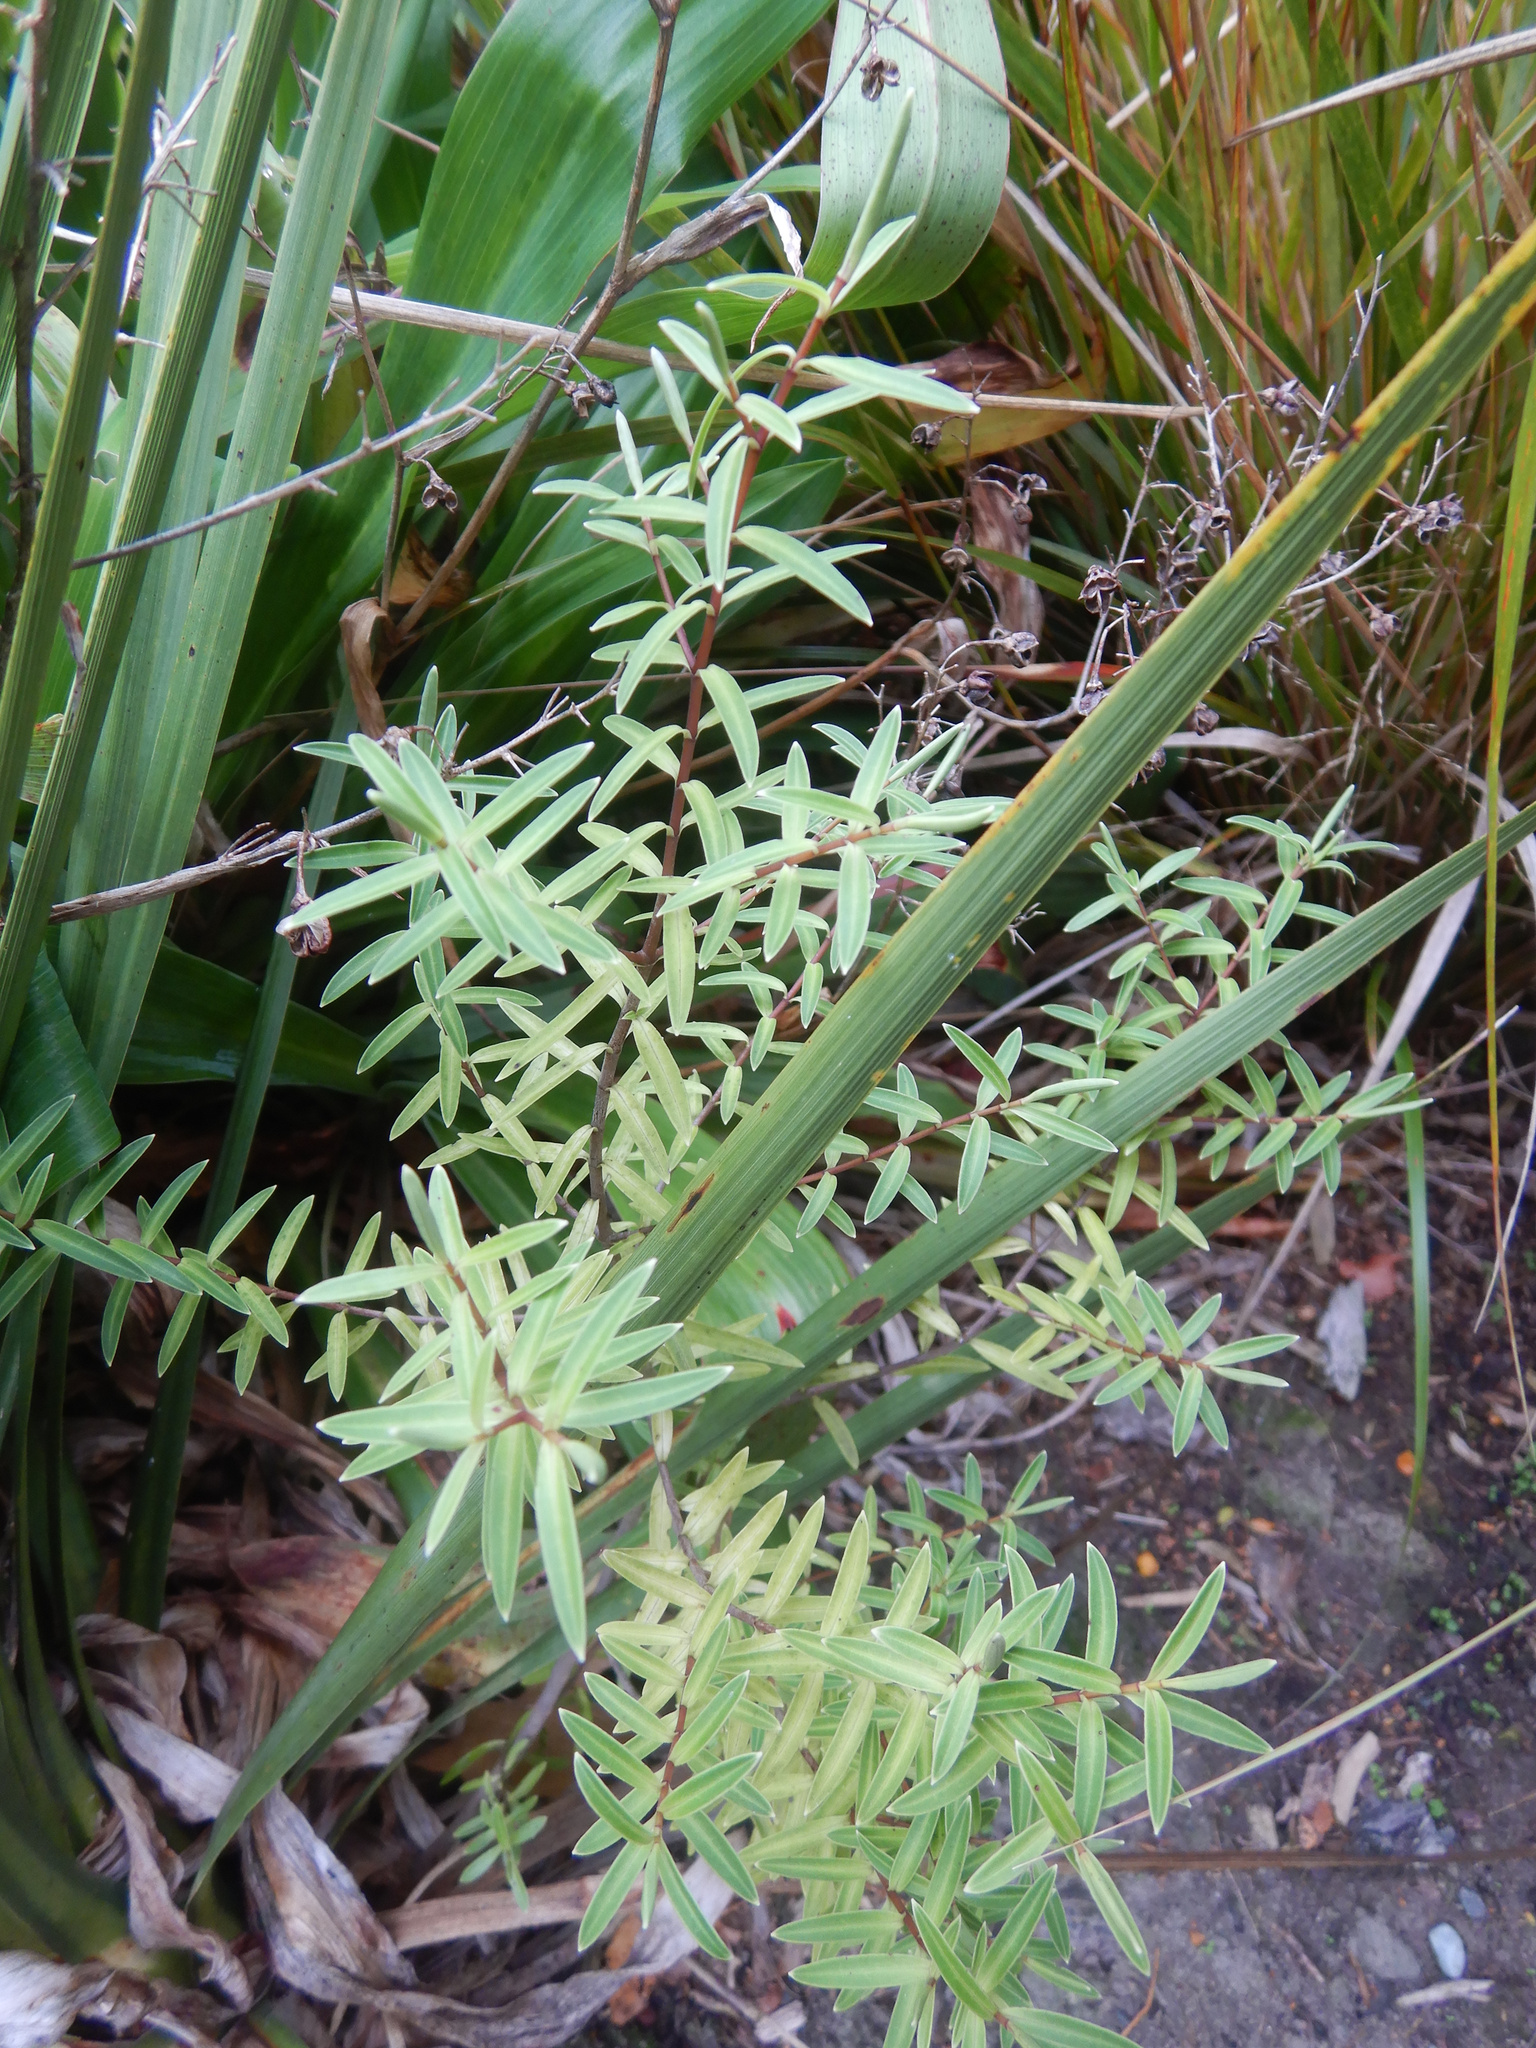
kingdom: Plantae
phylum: Tracheophyta
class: Magnoliopsida
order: Lamiales
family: Plantaginaceae
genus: Veronica
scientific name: Veronica strictissima
